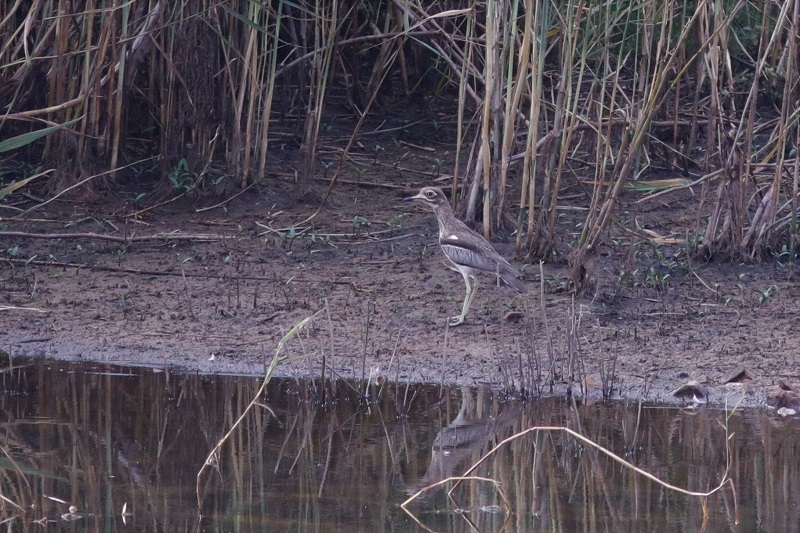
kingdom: Animalia
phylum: Chordata
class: Aves
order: Charadriiformes
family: Burhinidae
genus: Burhinus
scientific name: Burhinus vermiculatus
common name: Water thick-knee
